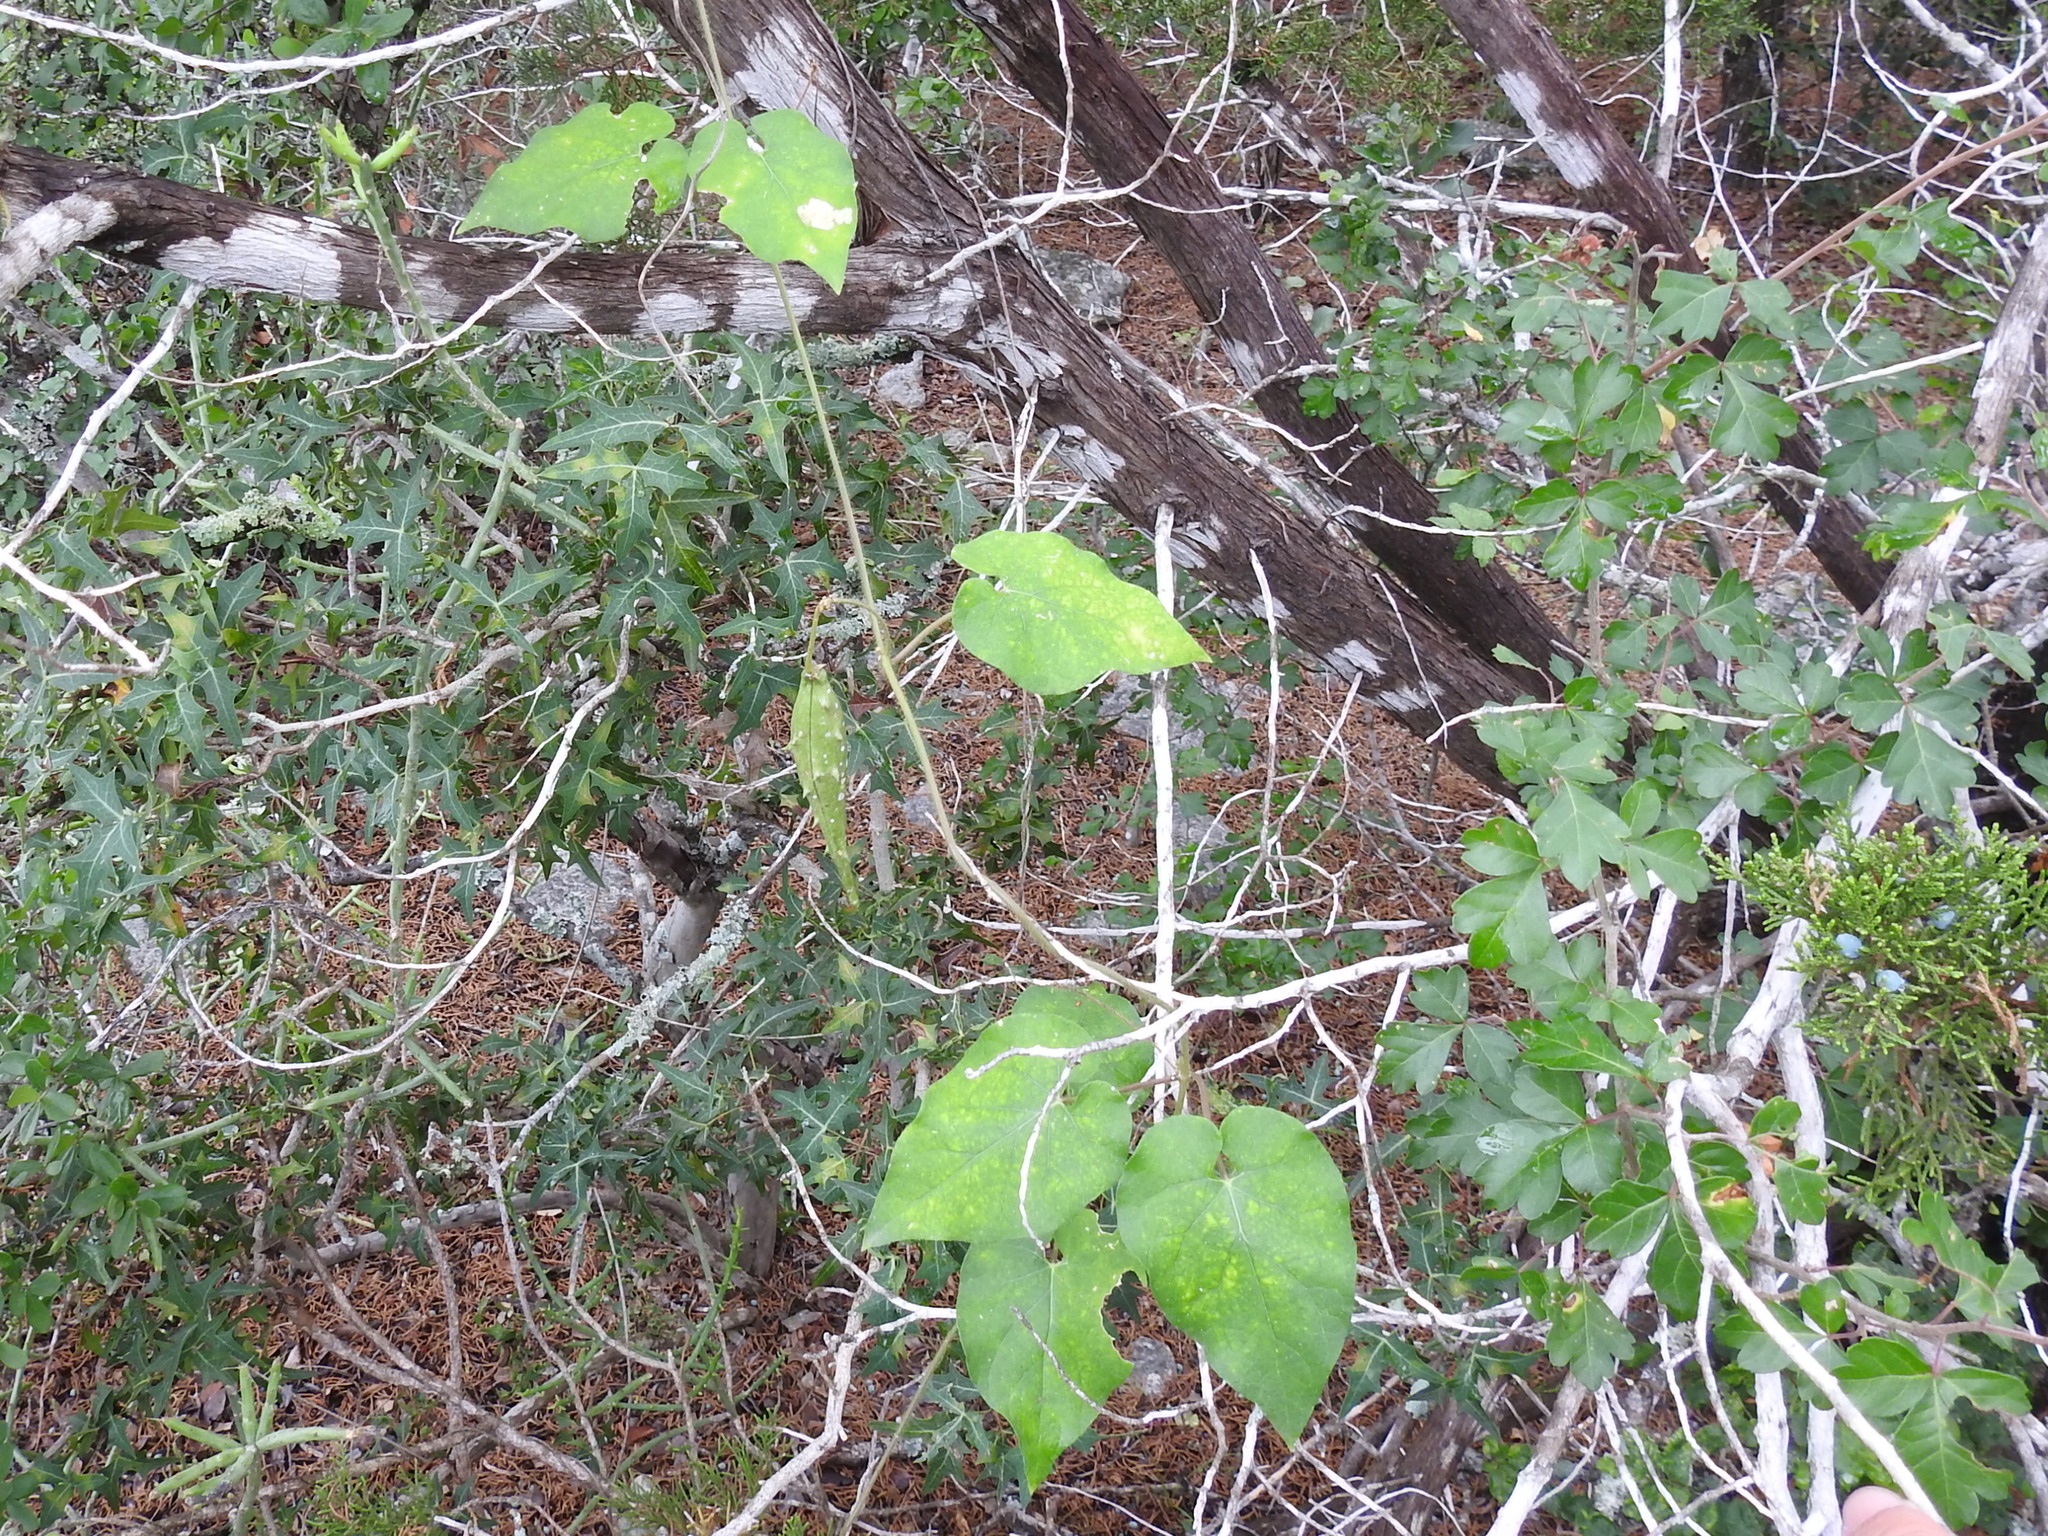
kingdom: Plantae
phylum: Tracheophyta
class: Magnoliopsida
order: Gentianales
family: Apocynaceae
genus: Dictyanthus
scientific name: Dictyanthus reticulatus
